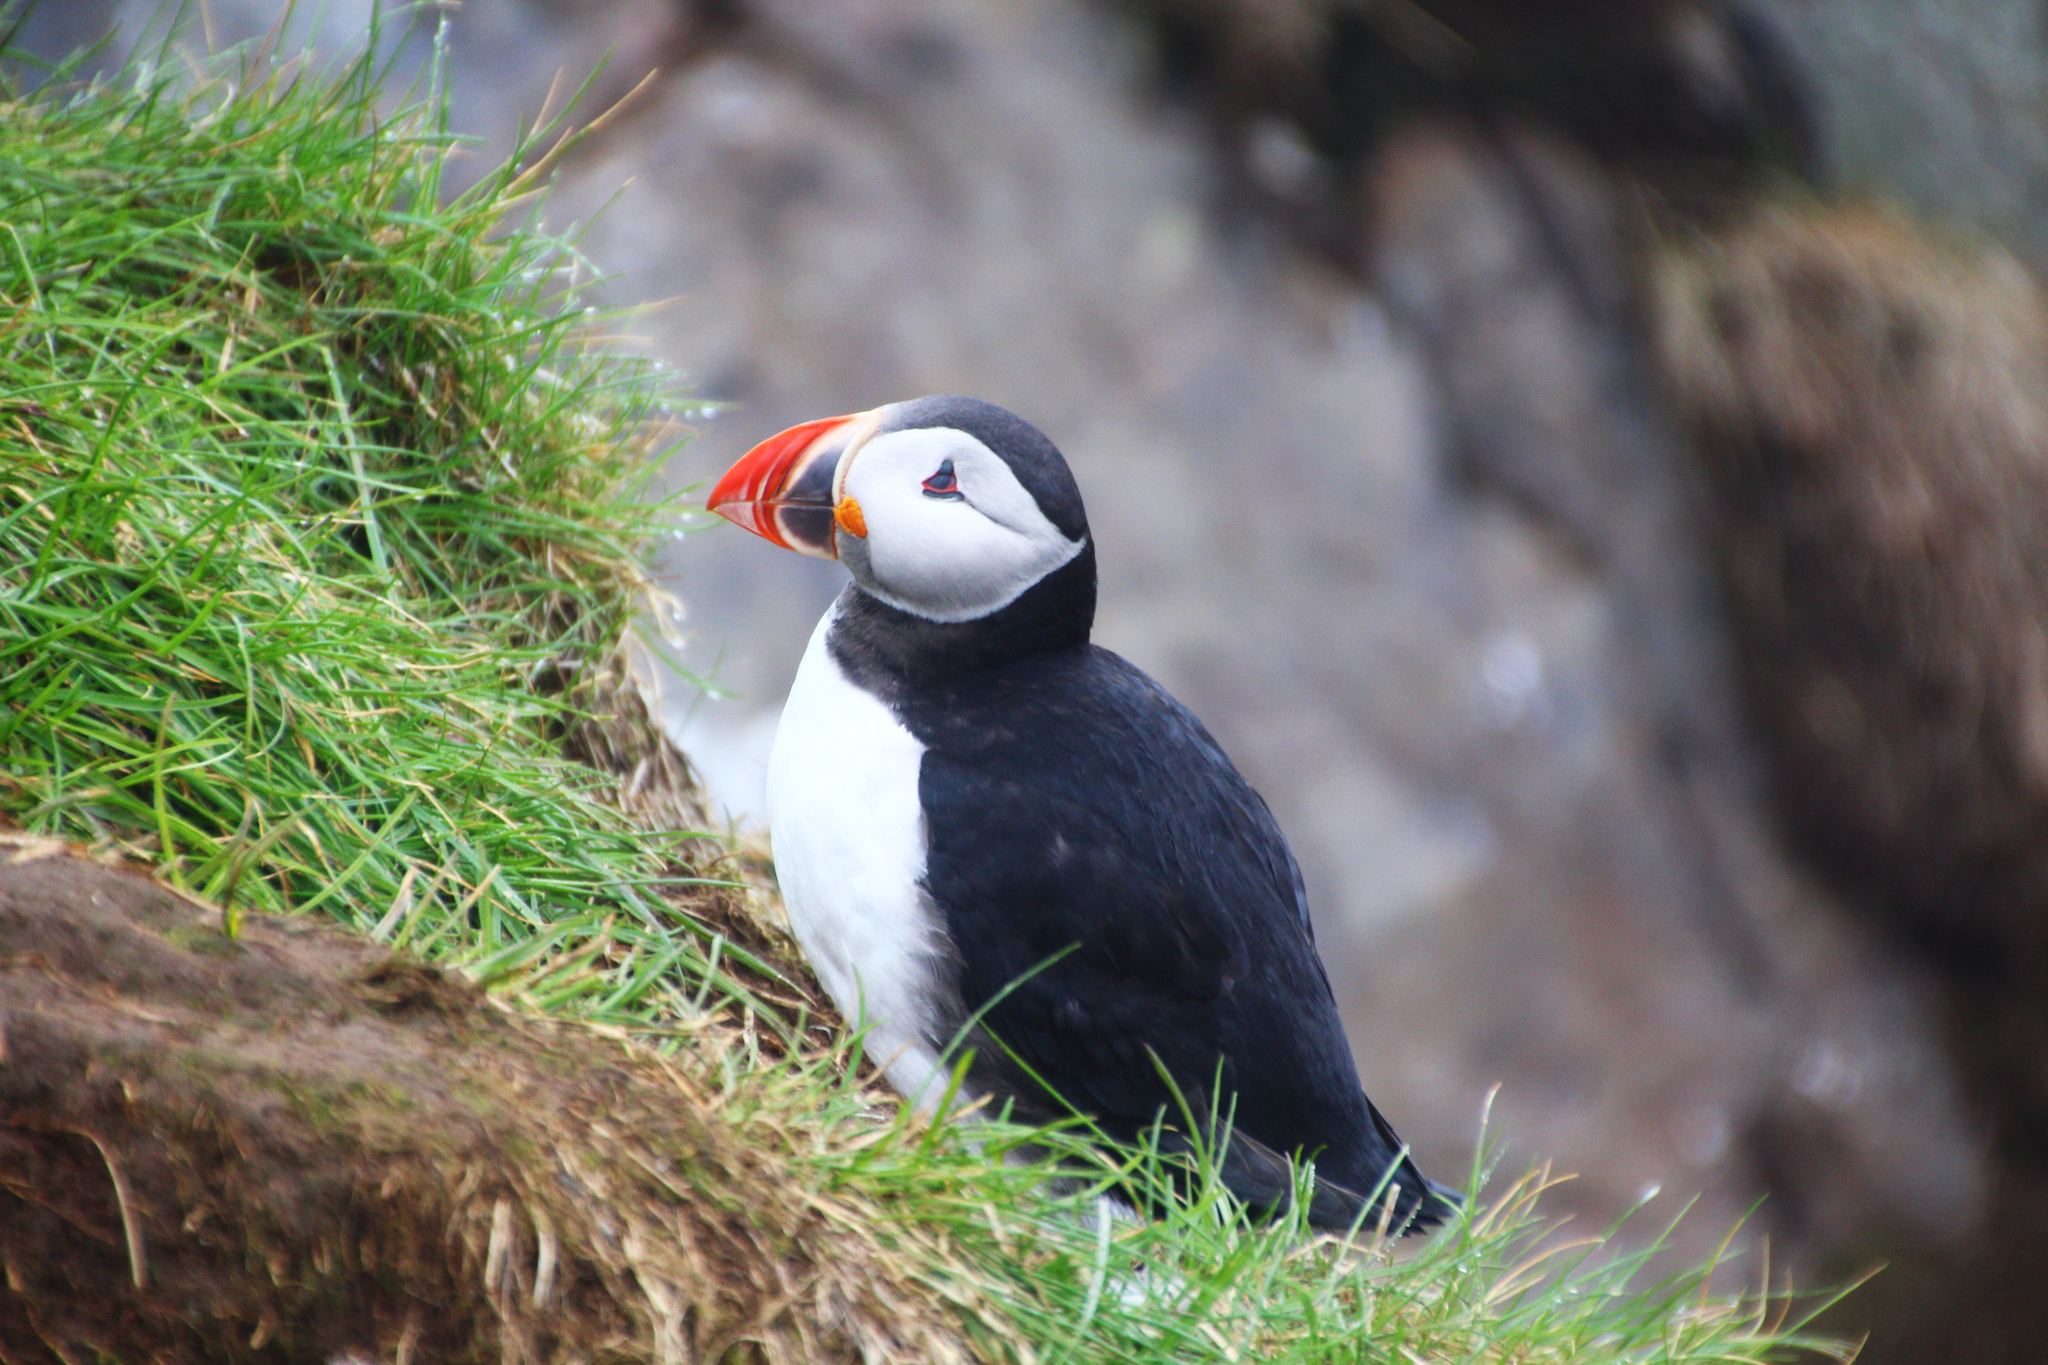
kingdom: Animalia
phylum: Chordata
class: Aves
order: Charadriiformes
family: Alcidae
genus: Fratercula
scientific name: Fratercula arctica
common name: Atlantic puffin
